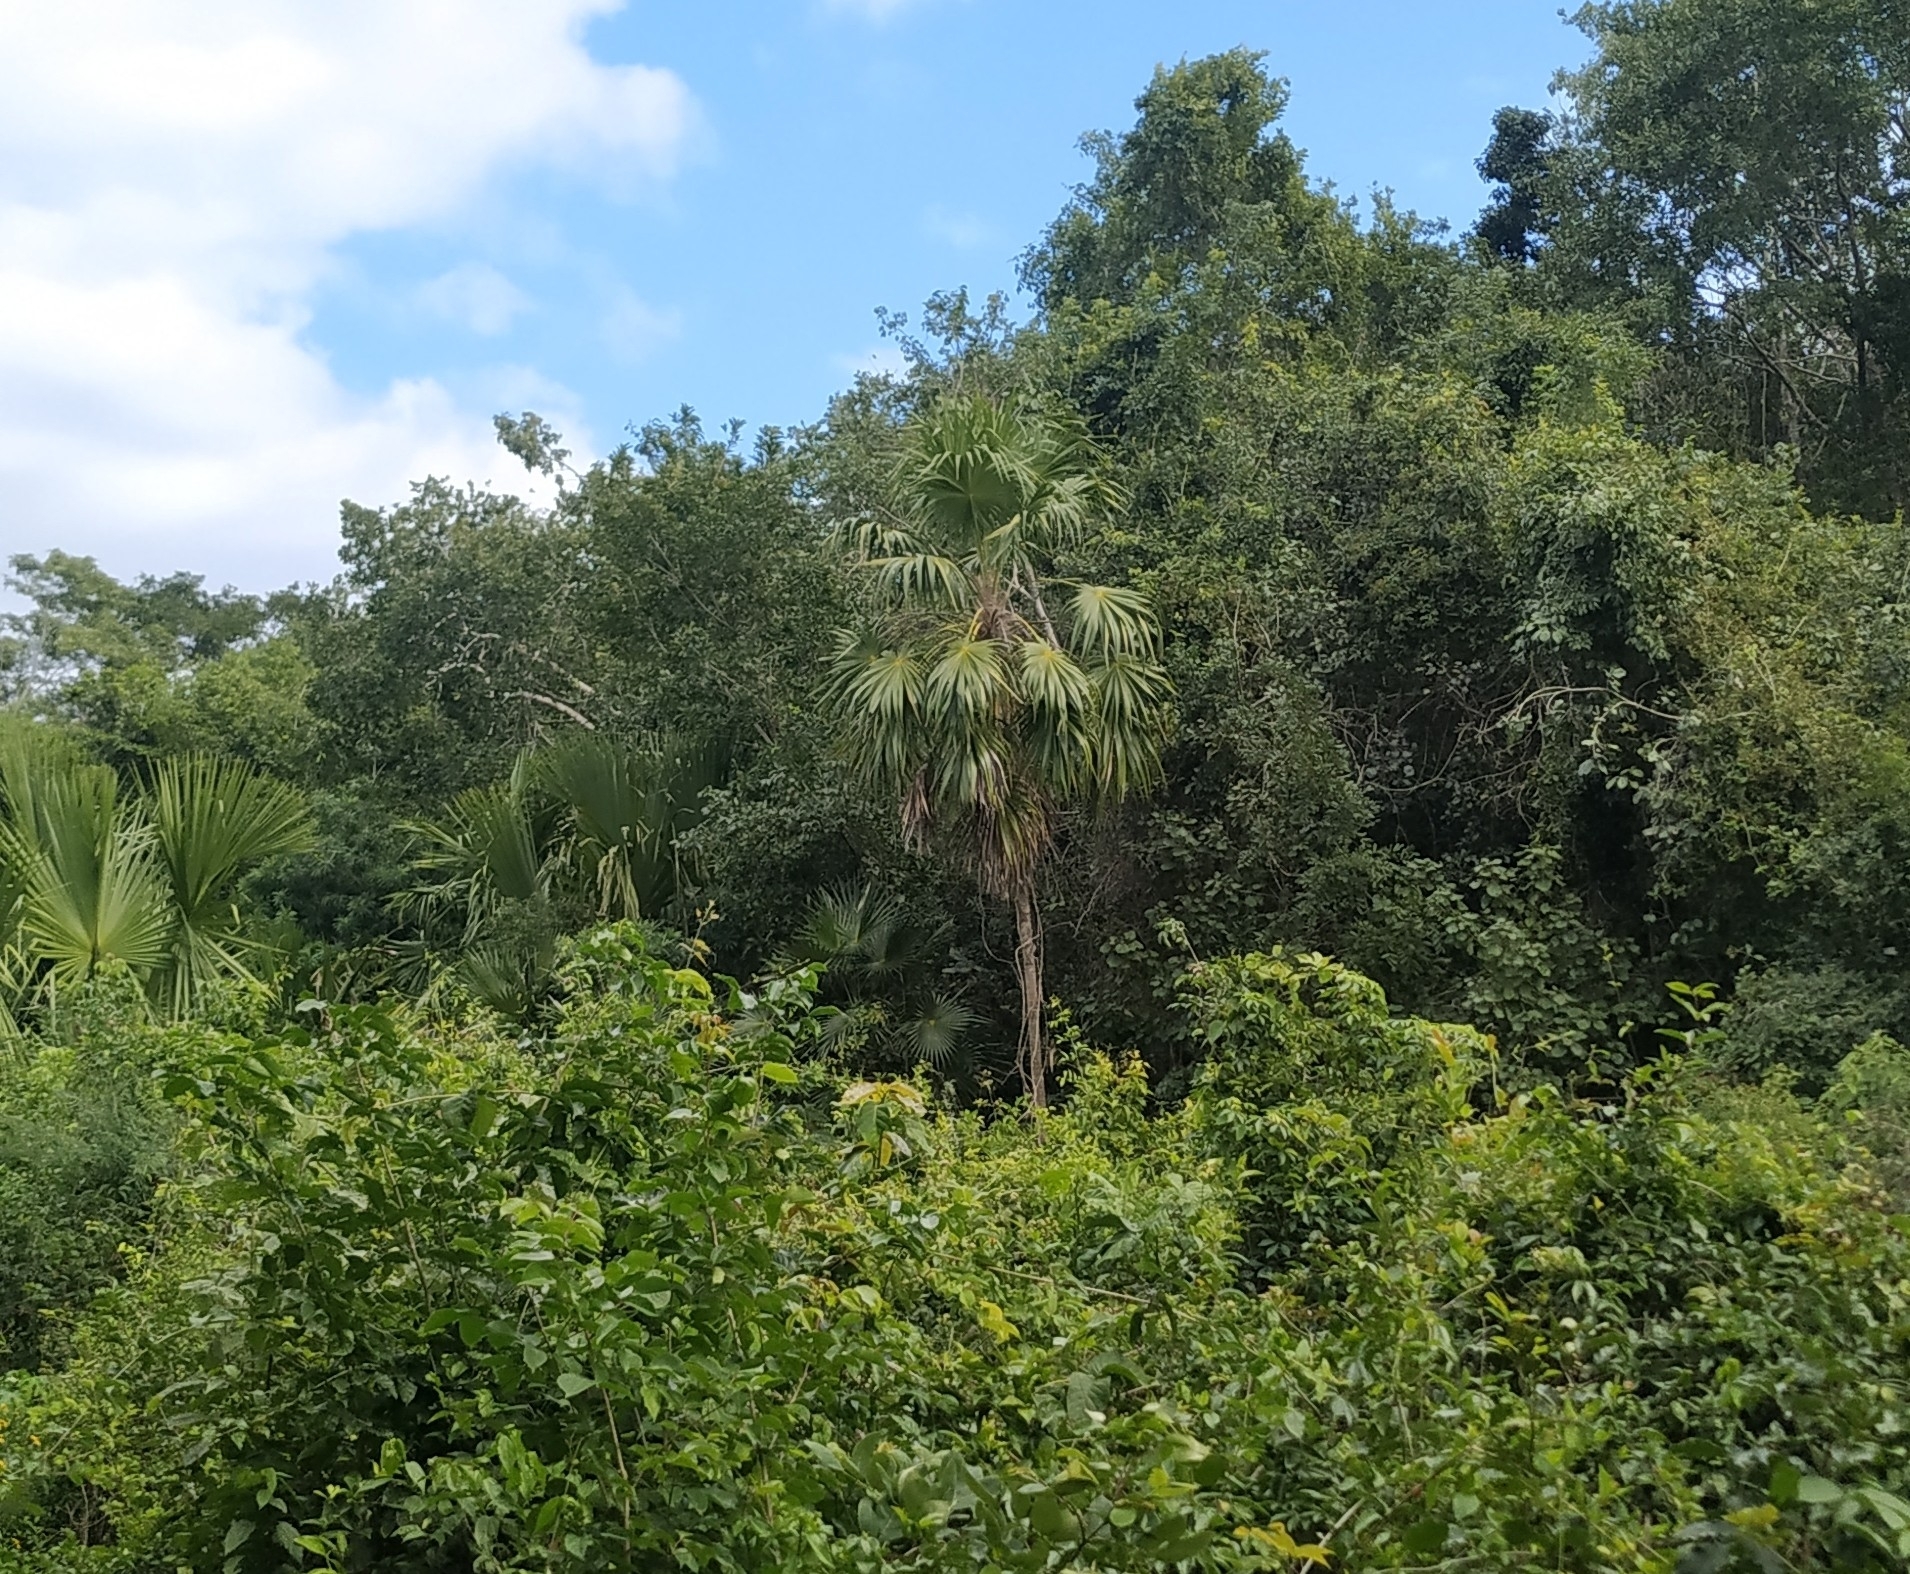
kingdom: Plantae
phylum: Tracheophyta
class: Liliopsida
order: Arecales
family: Arecaceae
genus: Thrinax
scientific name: Thrinax radiata
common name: Florida thatch
